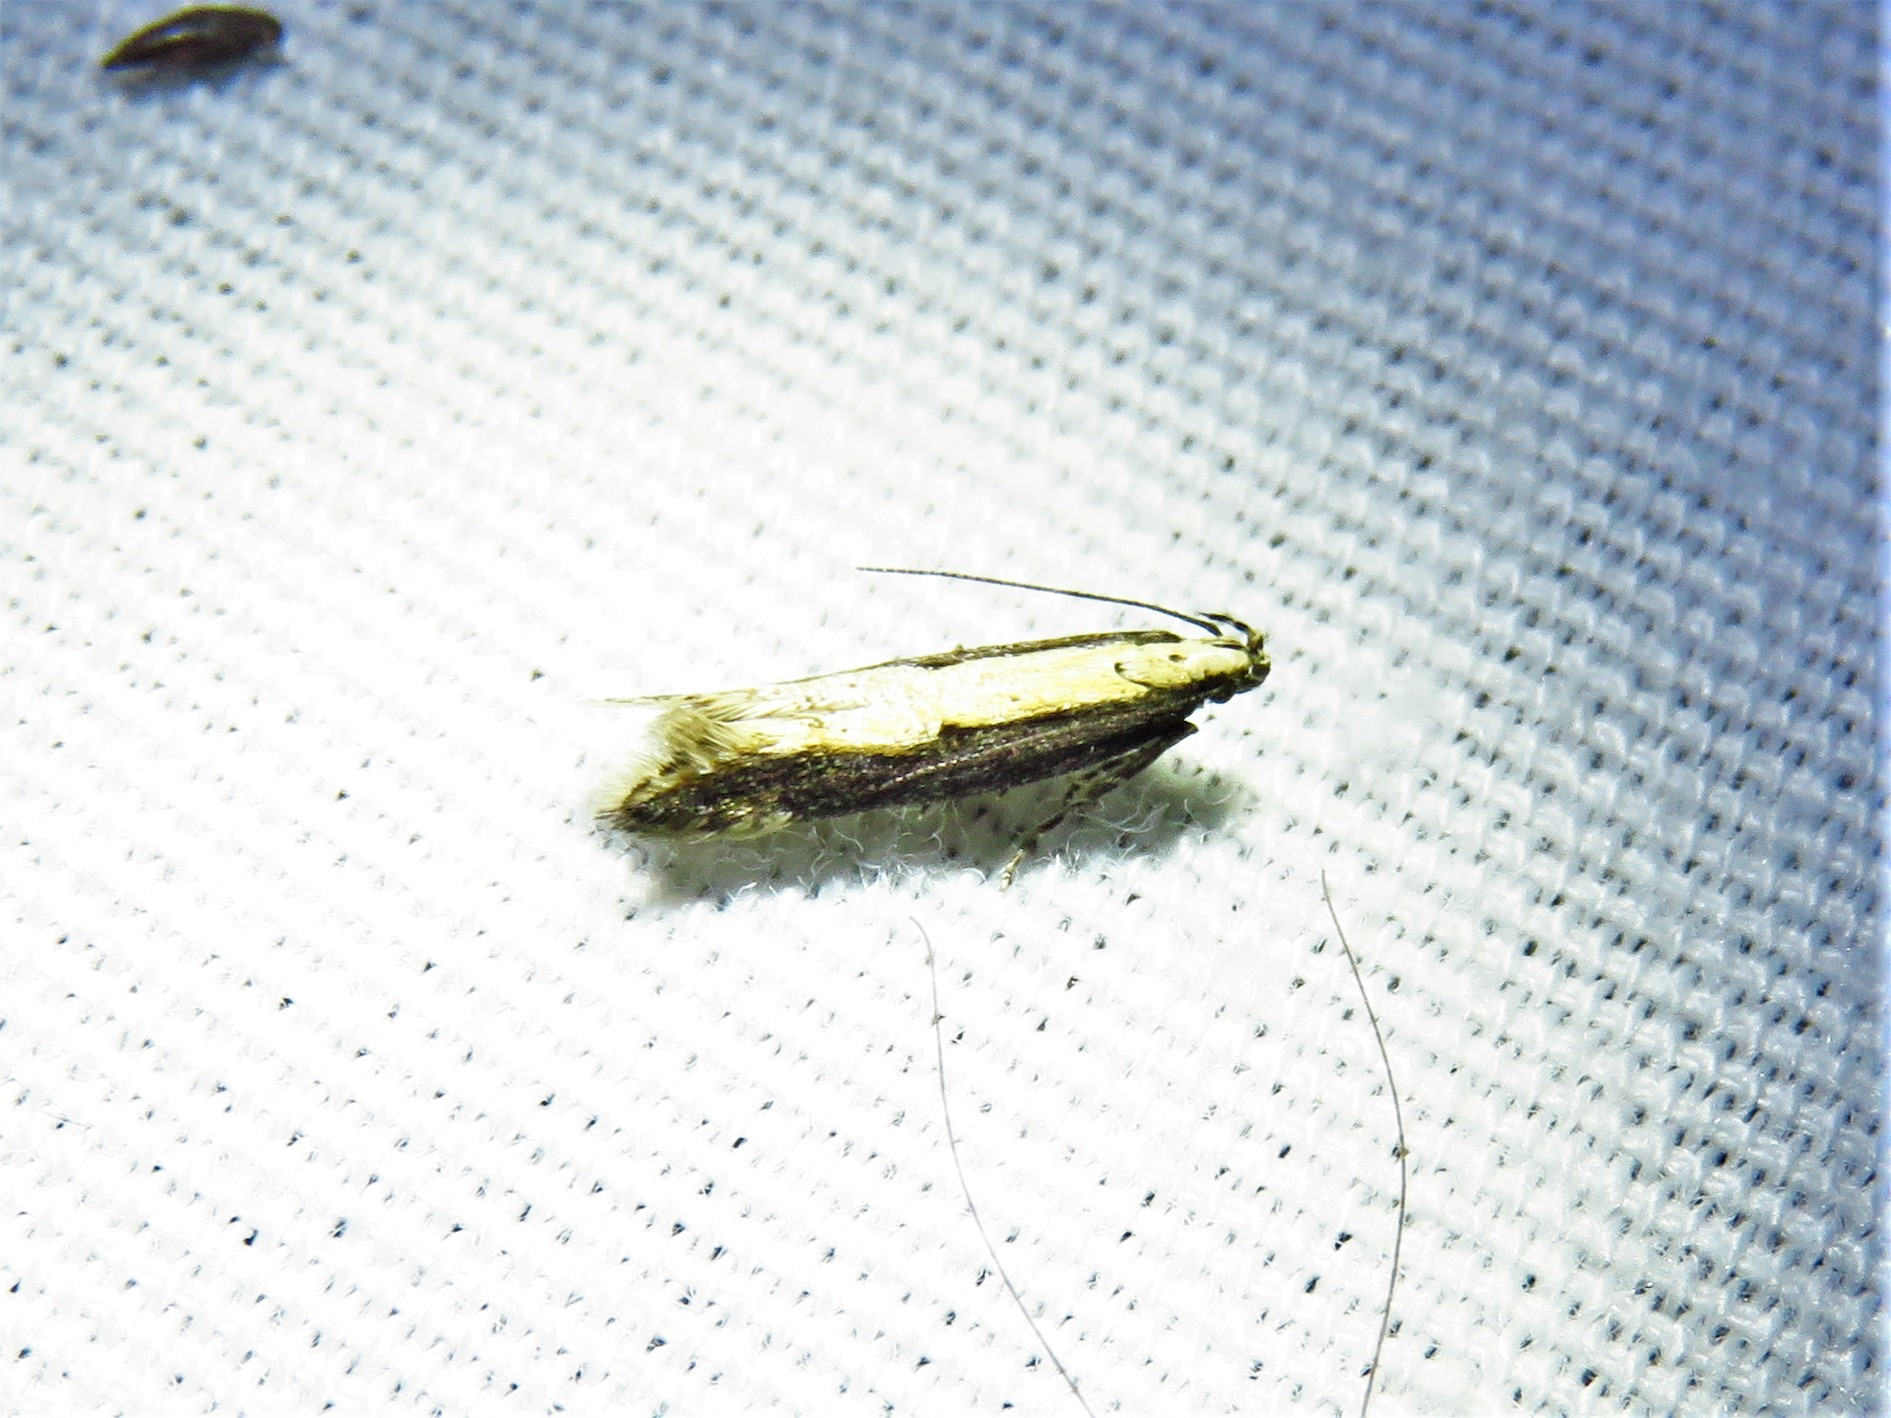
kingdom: Animalia
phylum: Arthropoda
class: Insecta
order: Lepidoptera
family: Gelechiidae
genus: Aristotelia
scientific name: Aristotelia corallina
